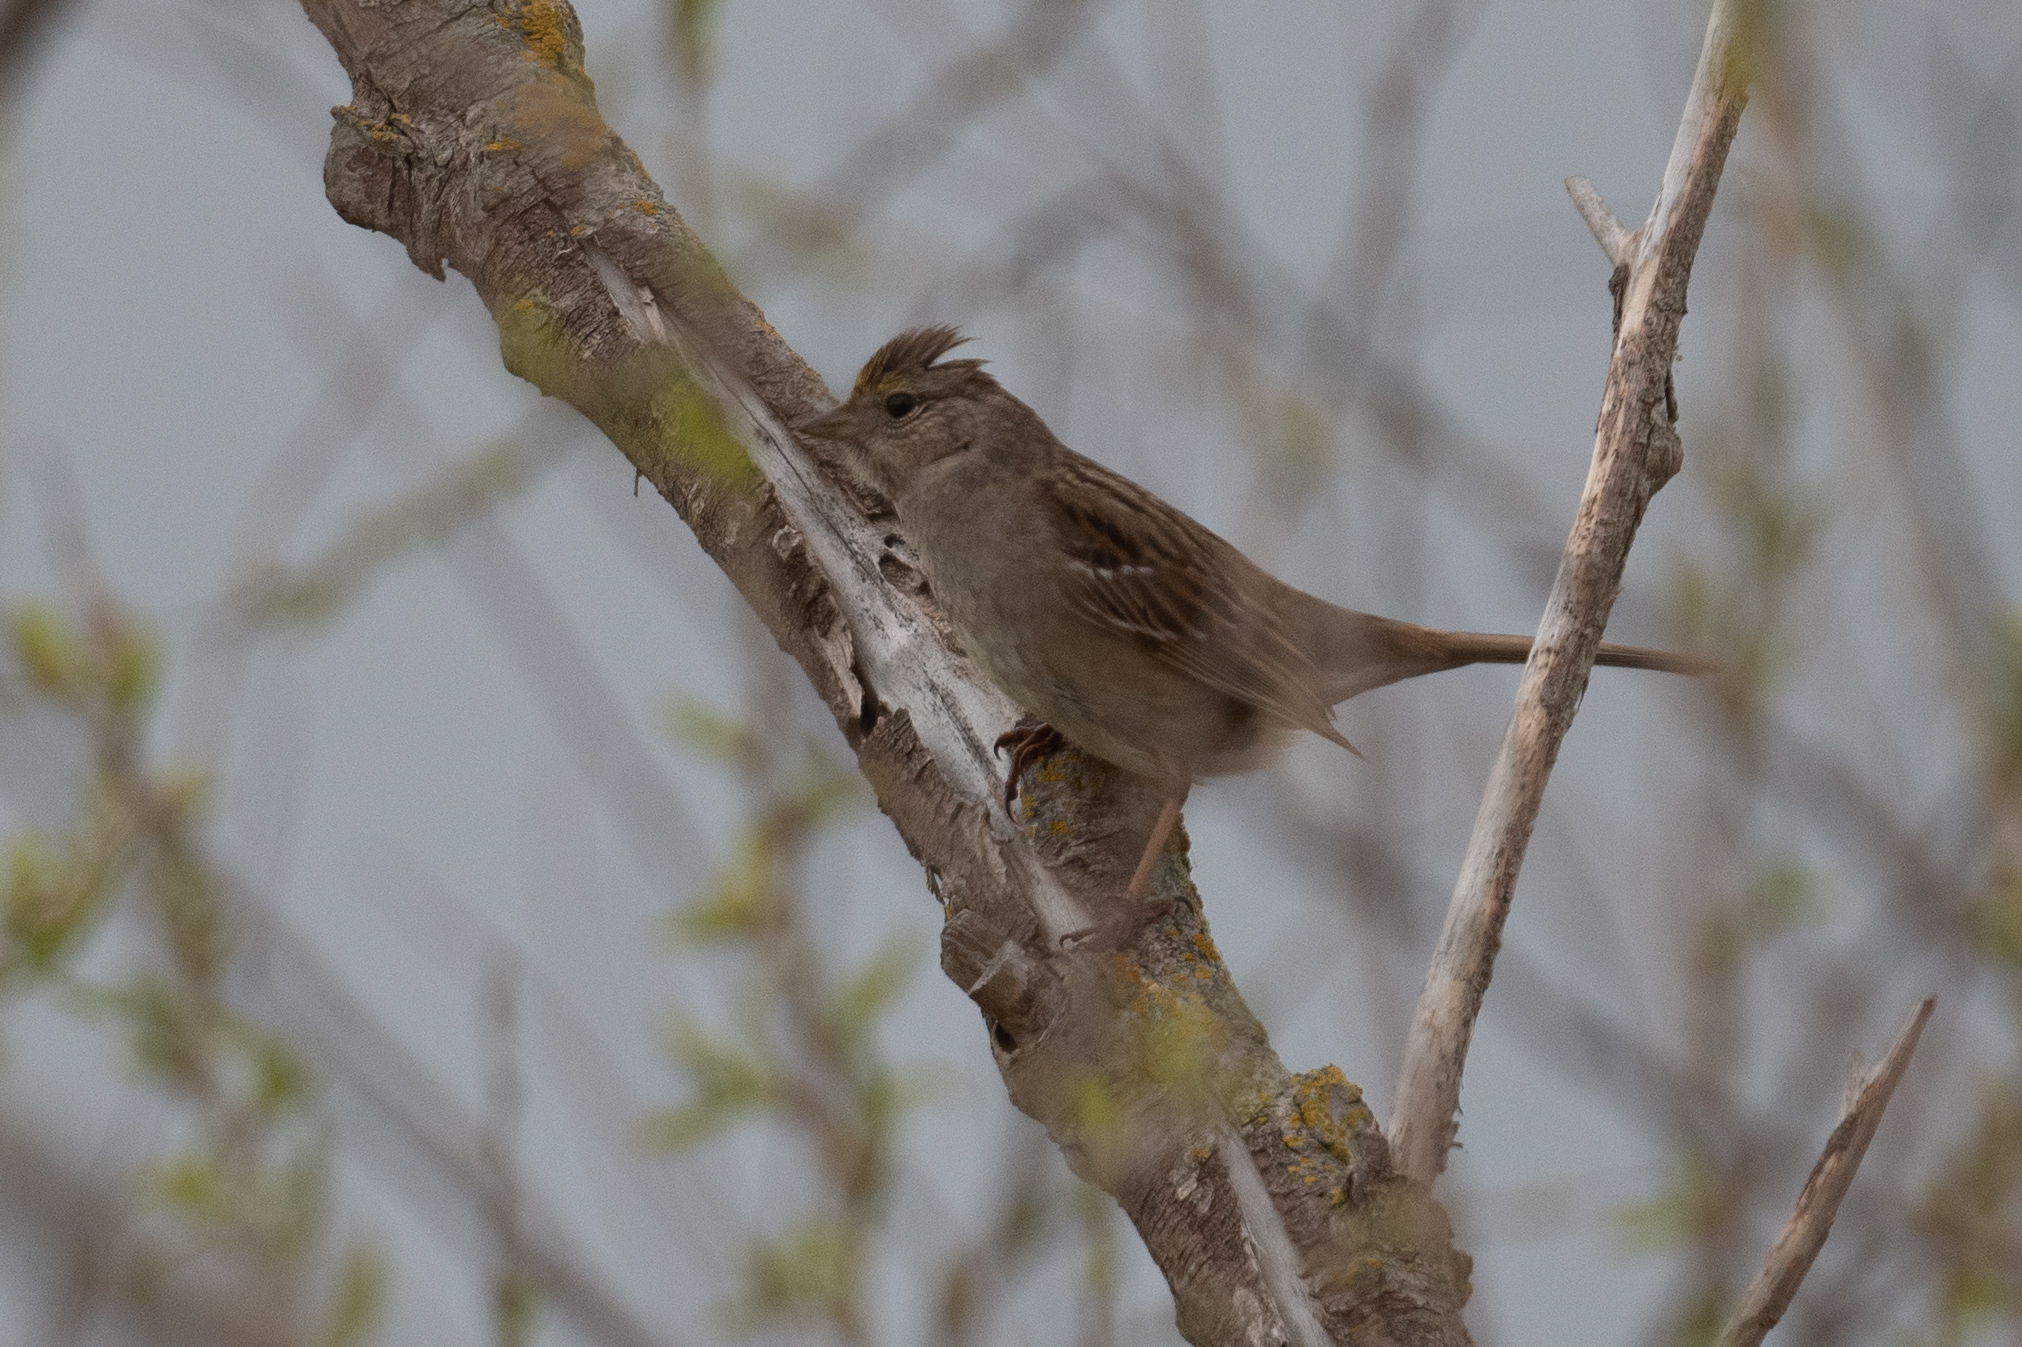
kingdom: Animalia
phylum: Chordata
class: Aves
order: Passeriformes
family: Passerellidae
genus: Zonotrichia
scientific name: Zonotrichia atricapilla
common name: Golden-crowned sparrow
